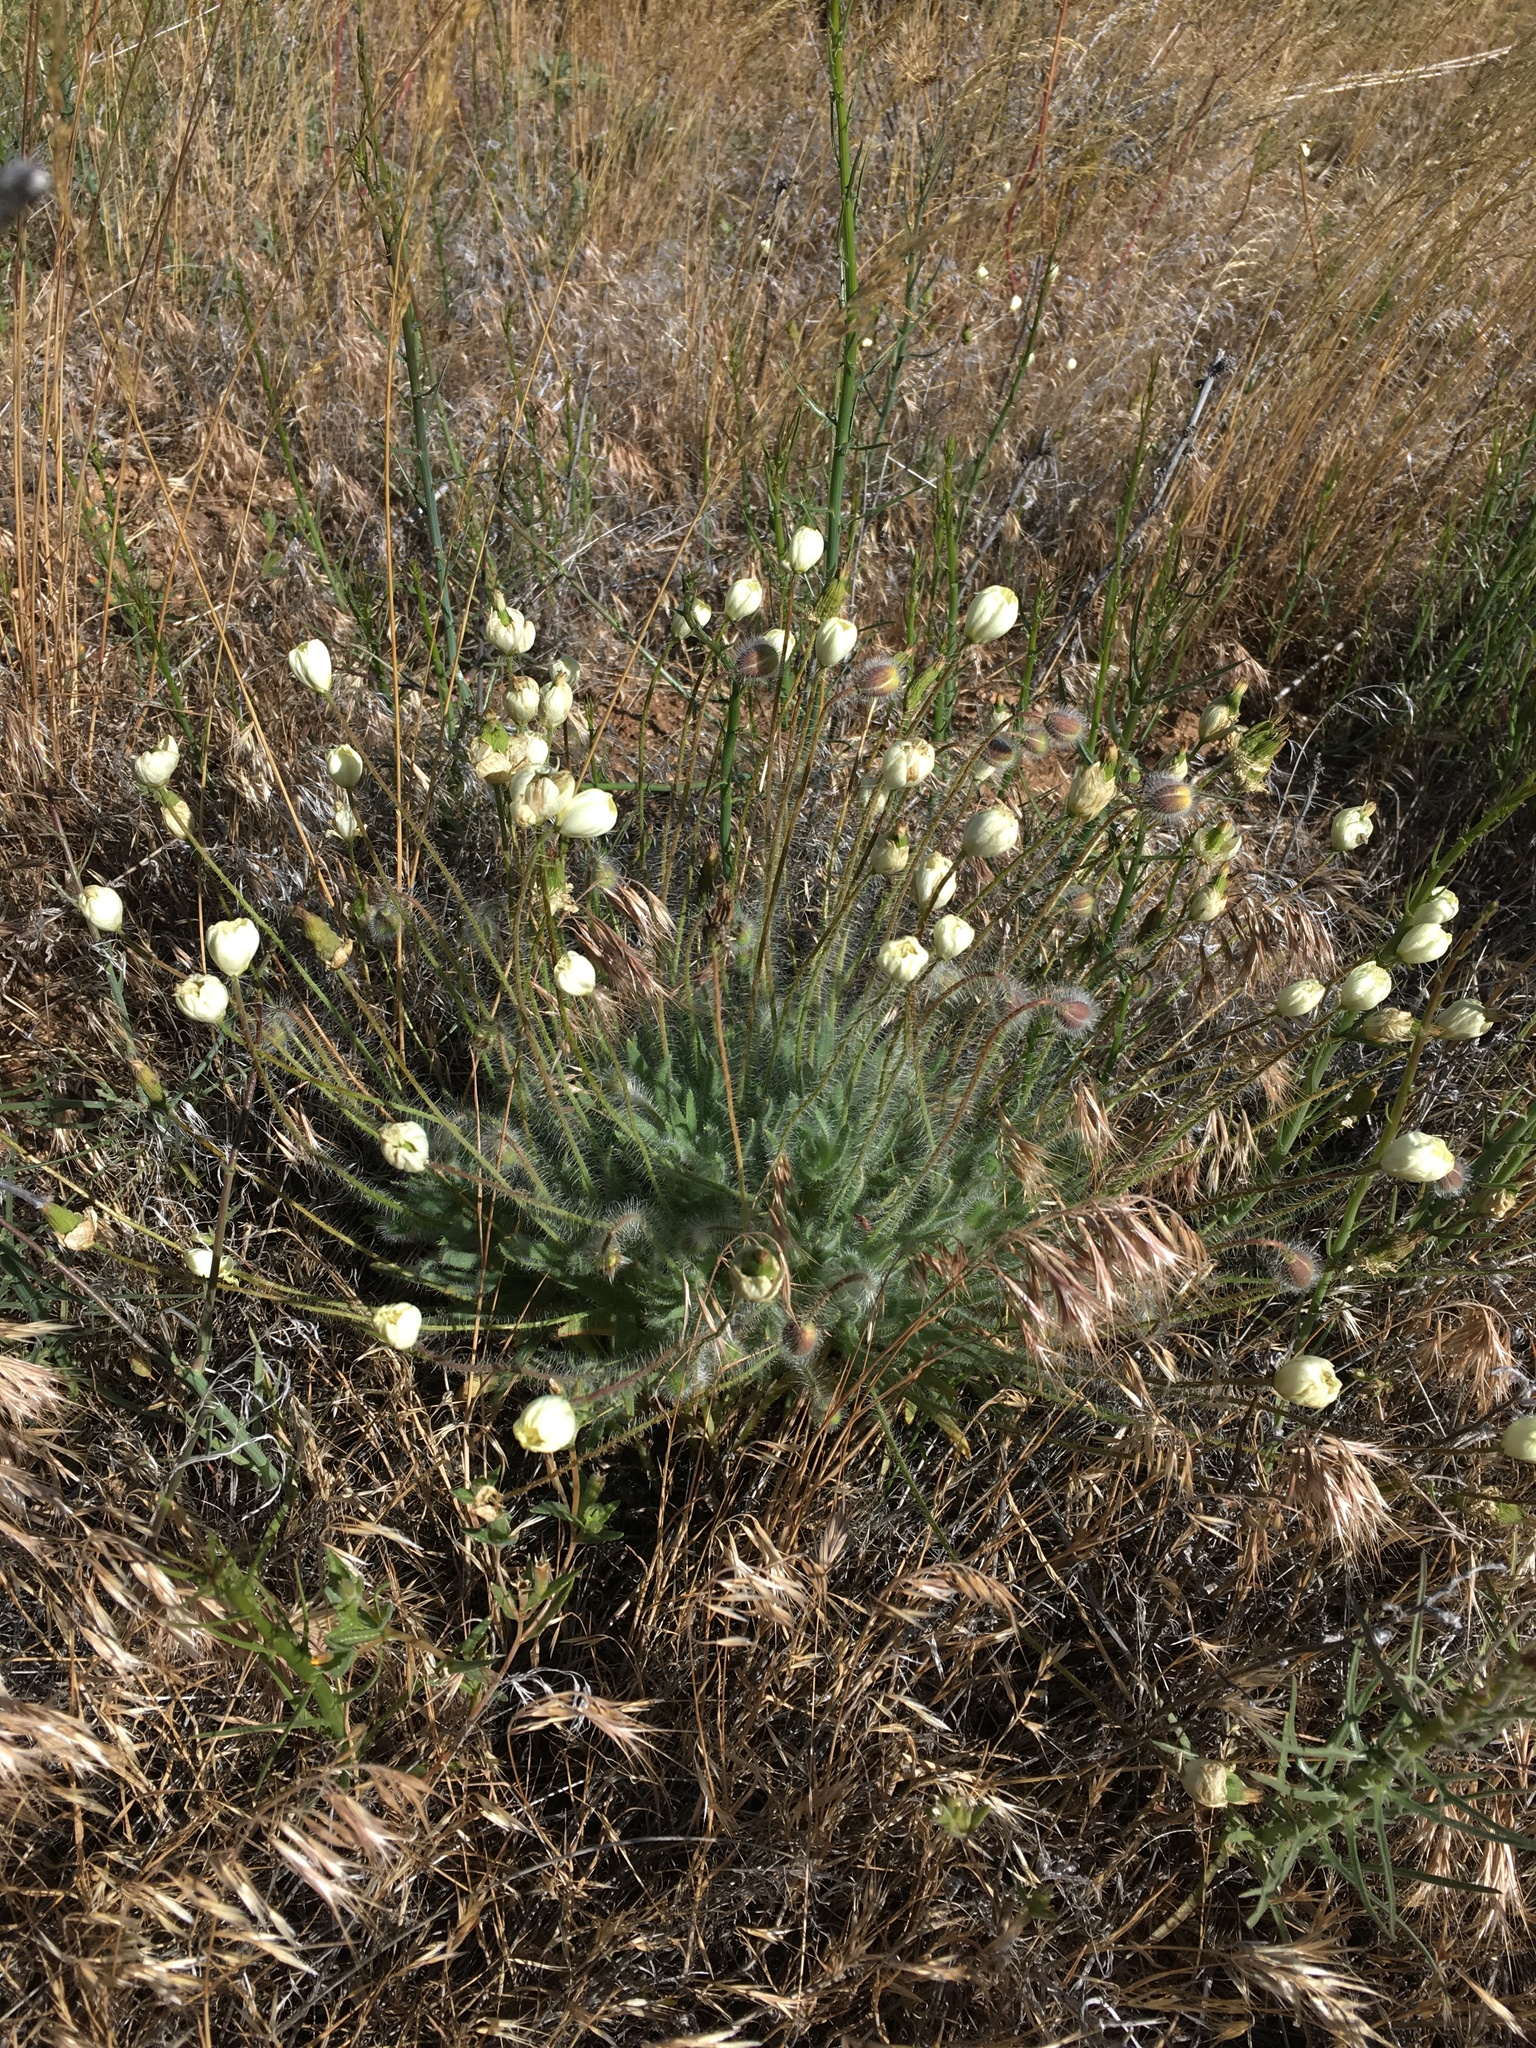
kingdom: Plantae
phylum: Tracheophyta
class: Magnoliopsida
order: Ranunculales
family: Papaveraceae
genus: Platystemon
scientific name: Platystemon californicus
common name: Cream-cups
